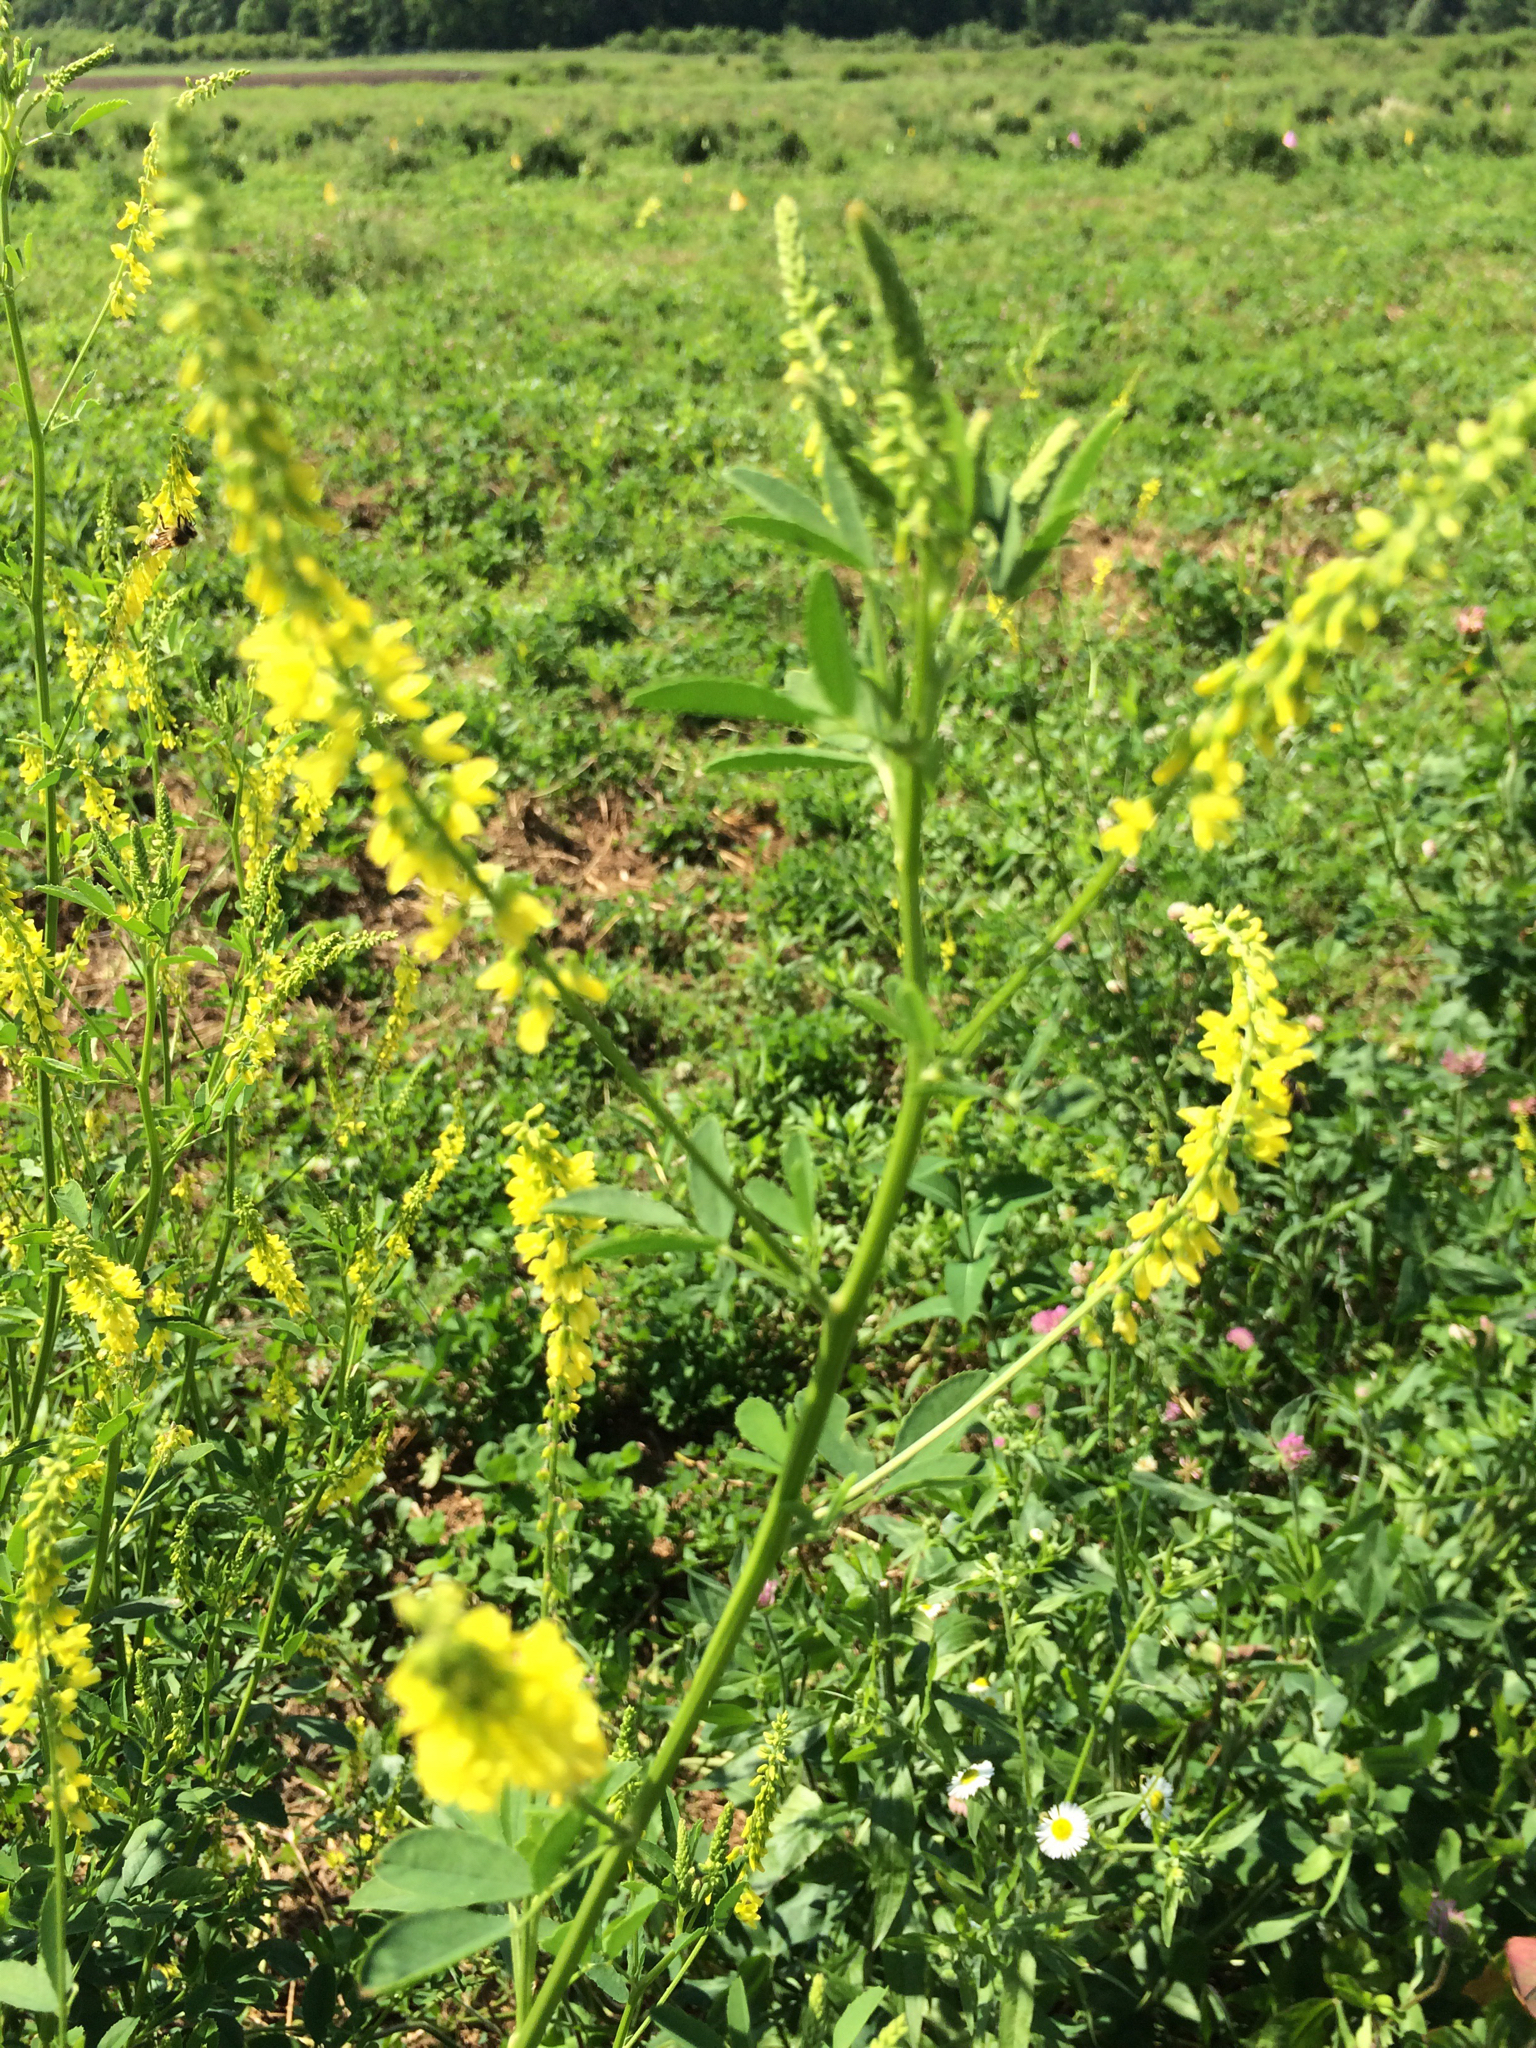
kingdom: Plantae
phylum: Tracheophyta
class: Magnoliopsida
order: Fabales
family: Fabaceae
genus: Melilotus
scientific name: Melilotus officinalis
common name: Sweetclover
